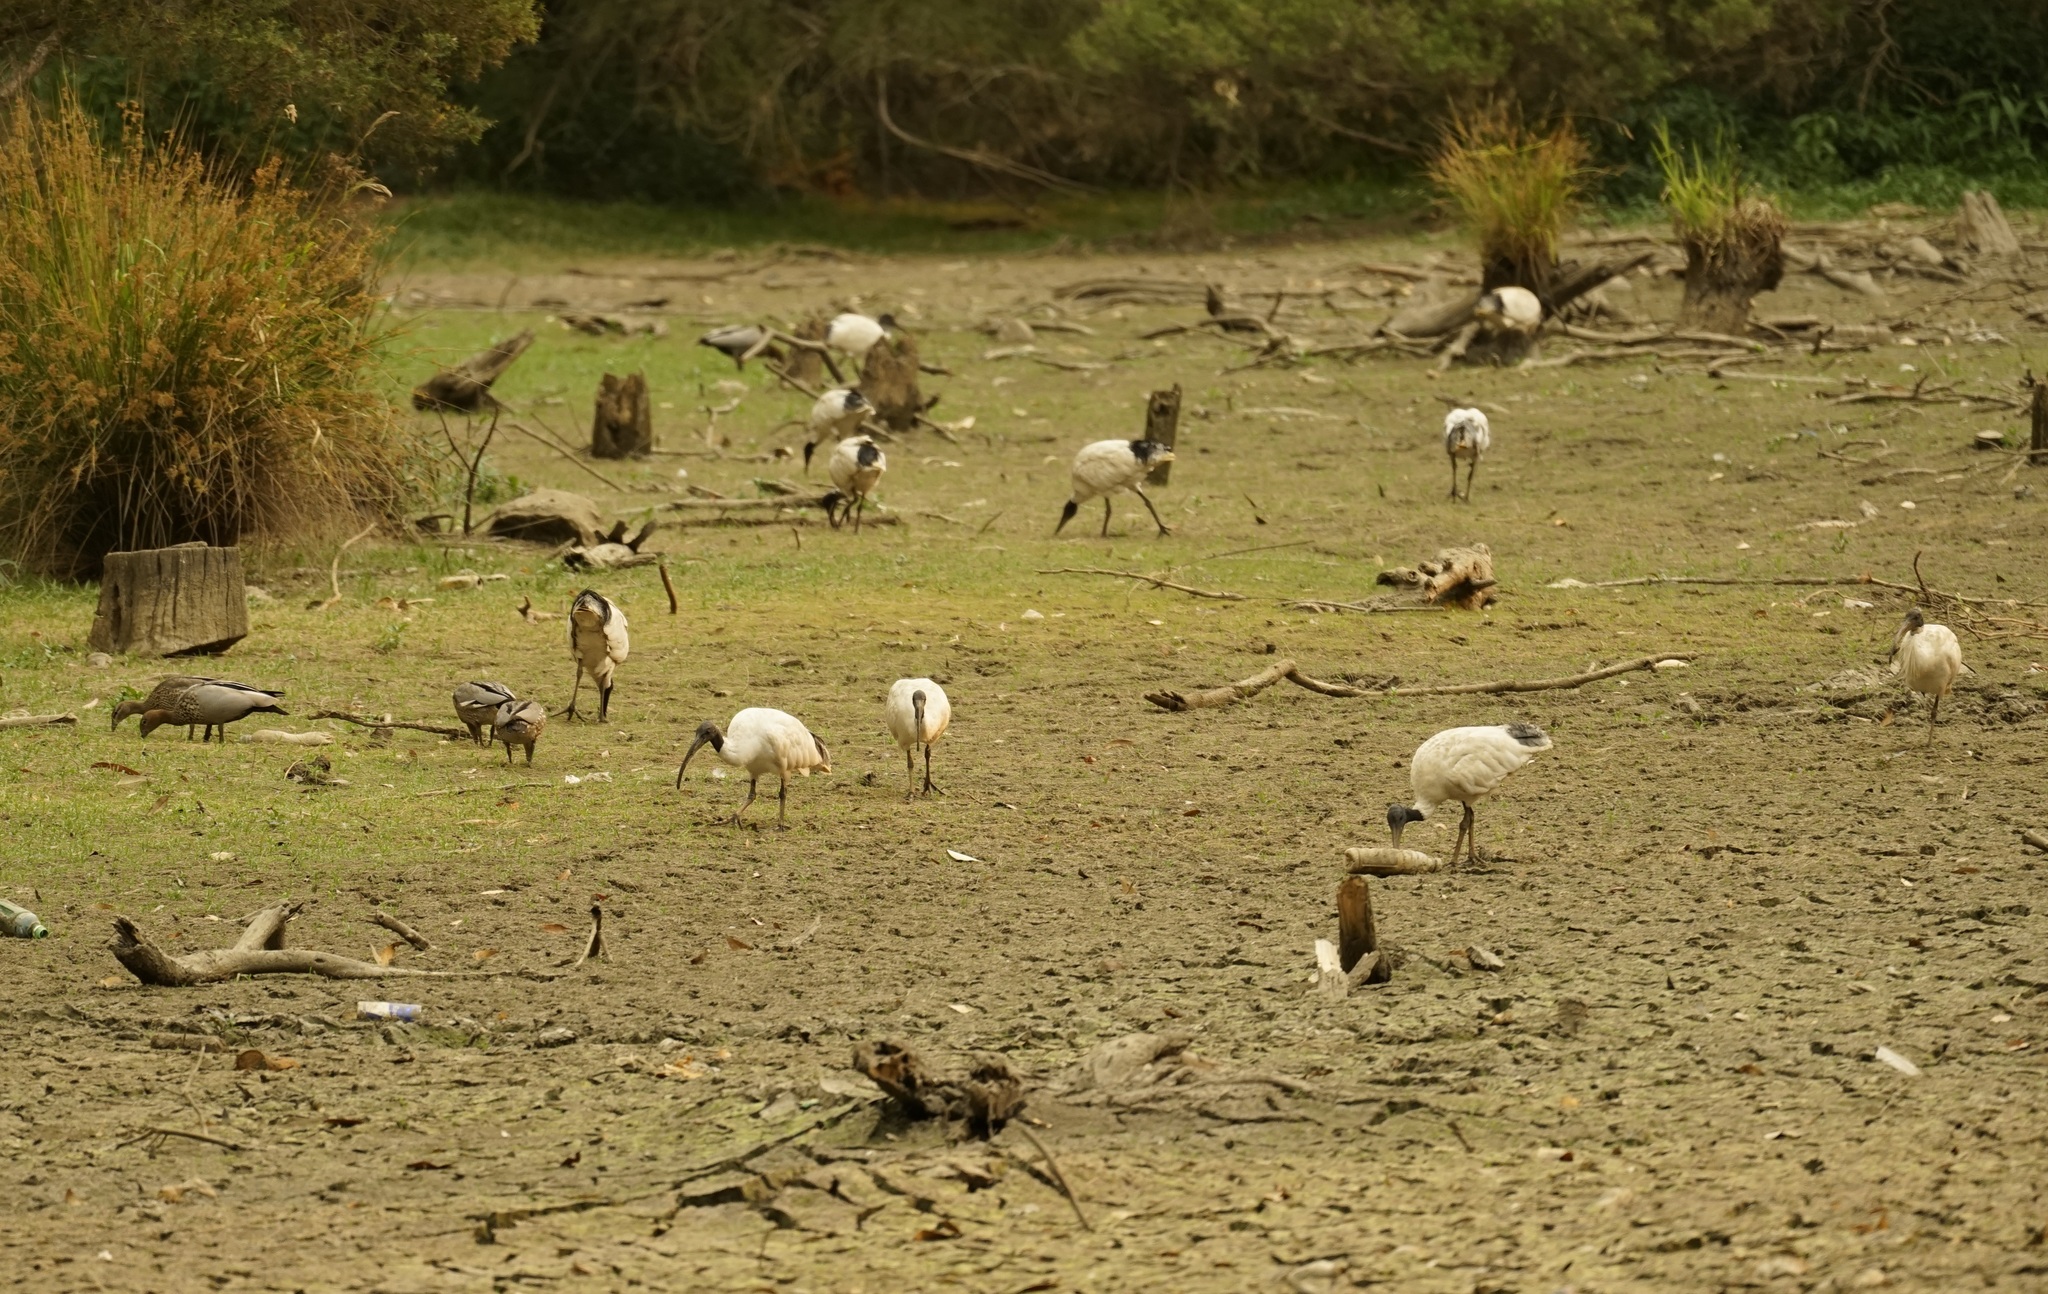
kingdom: Animalia
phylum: Chordata
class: Aves
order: Pelecaniformes
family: Threskiornithidae
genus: Threskiornis
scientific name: Threskiornis molucca
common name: Australian white ibis
